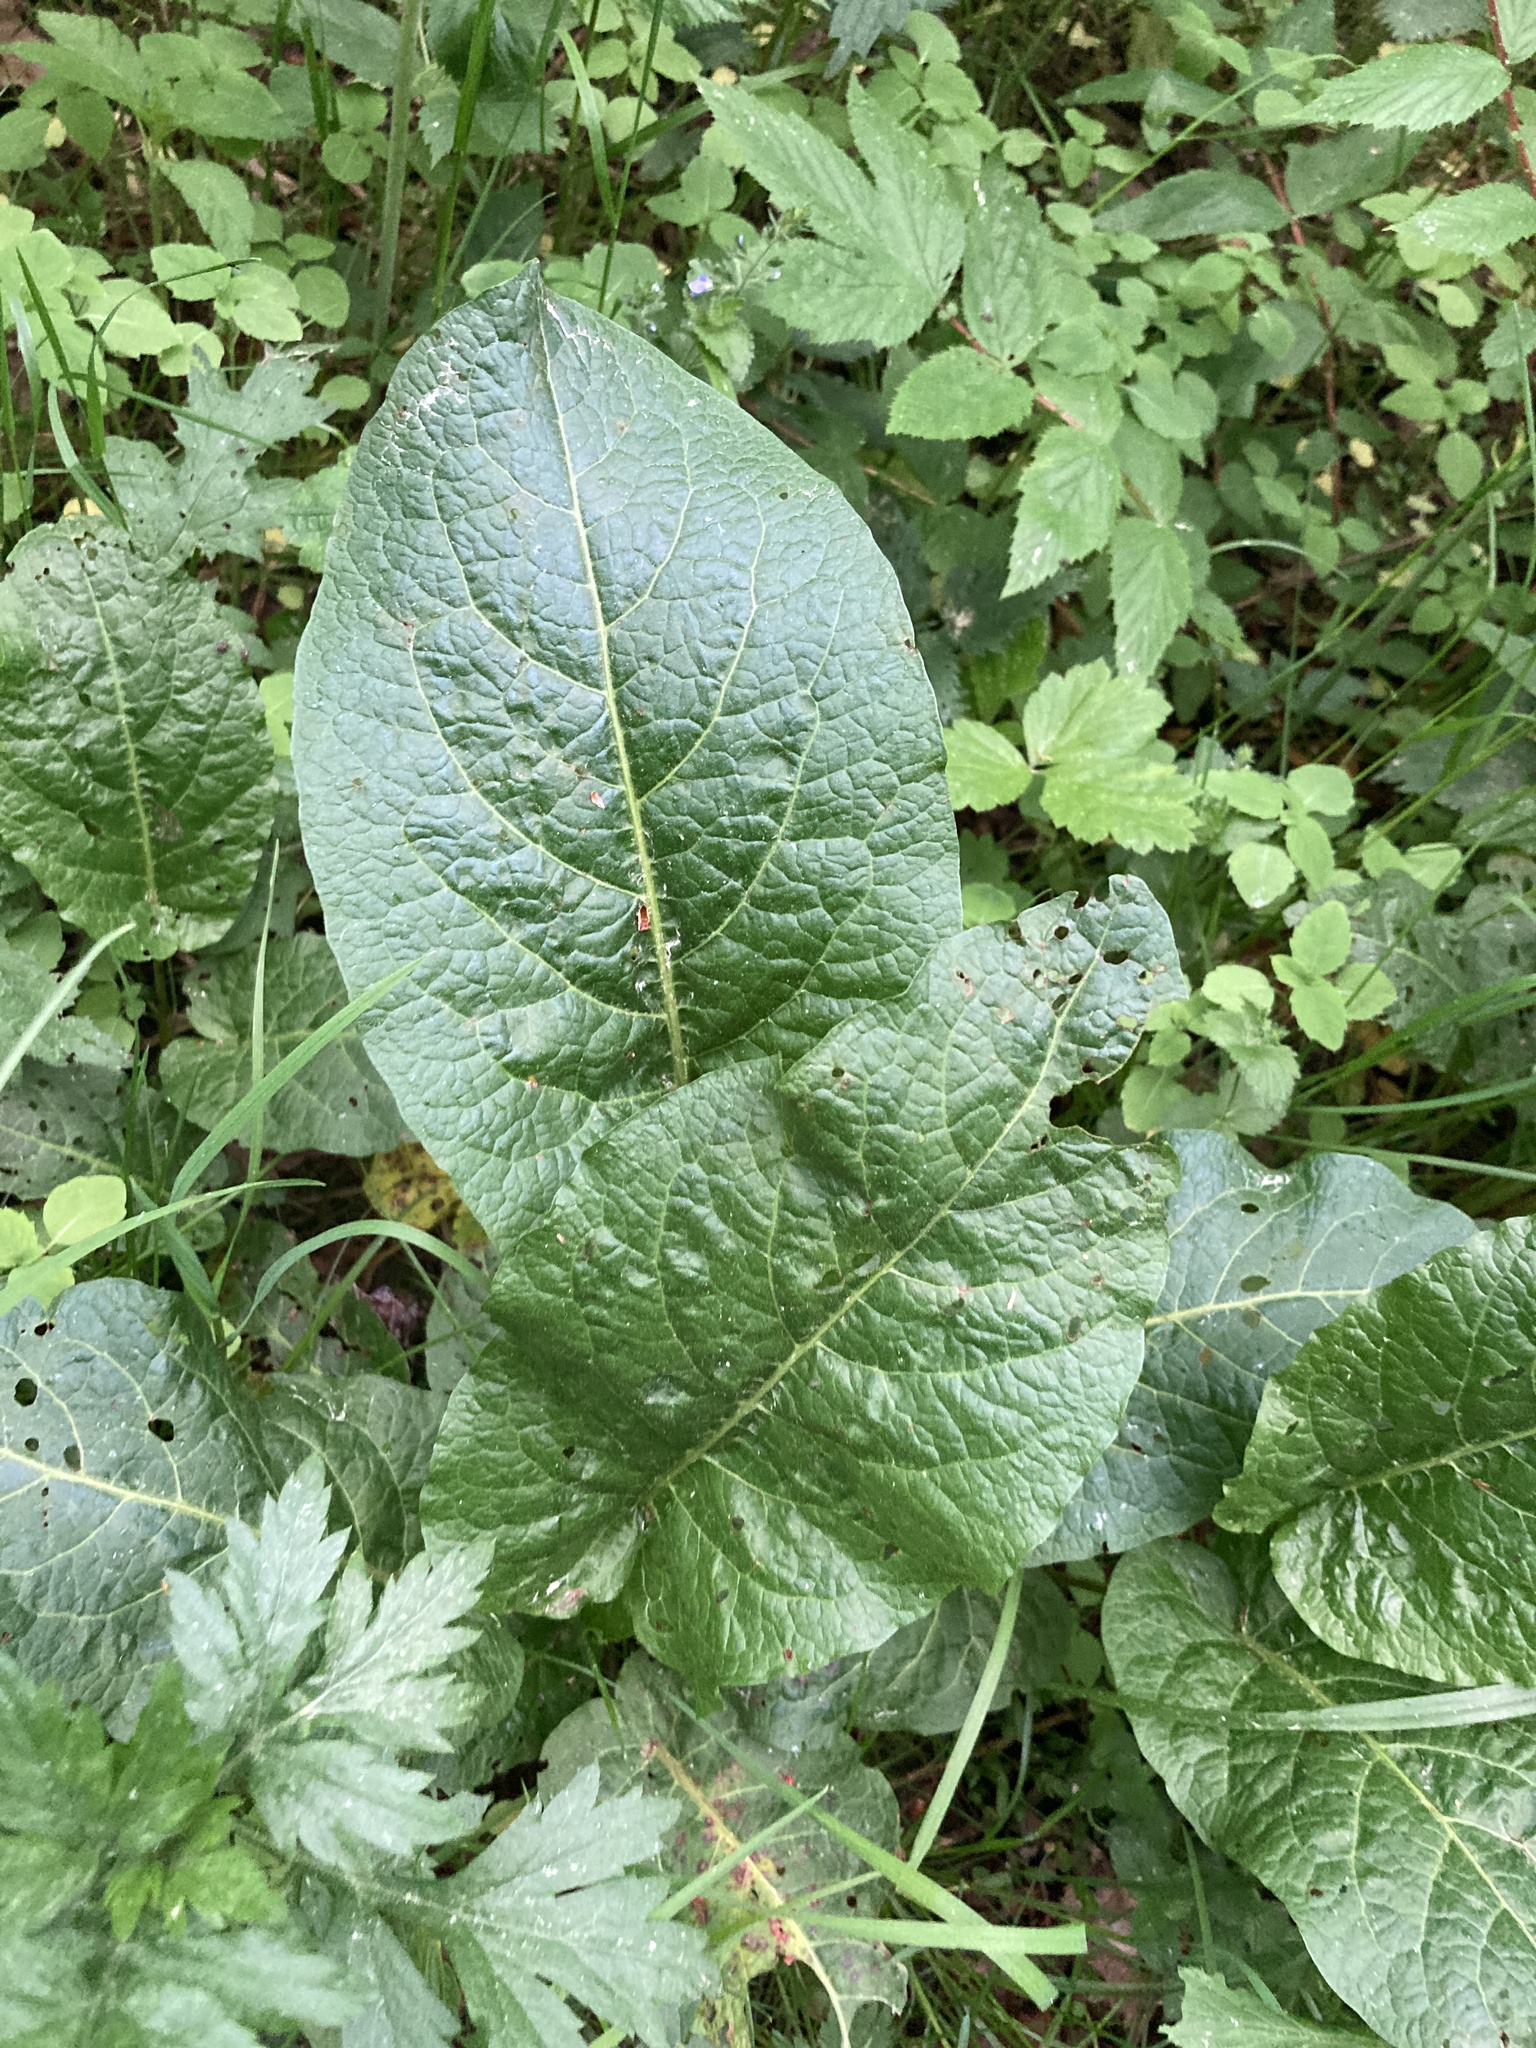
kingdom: Plantae
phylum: Tracheophyta
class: Magnoliopsida
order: Caryophyllales
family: Polygonaceae
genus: Rumex
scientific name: Rumex obtusifolius
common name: Bitter dock
